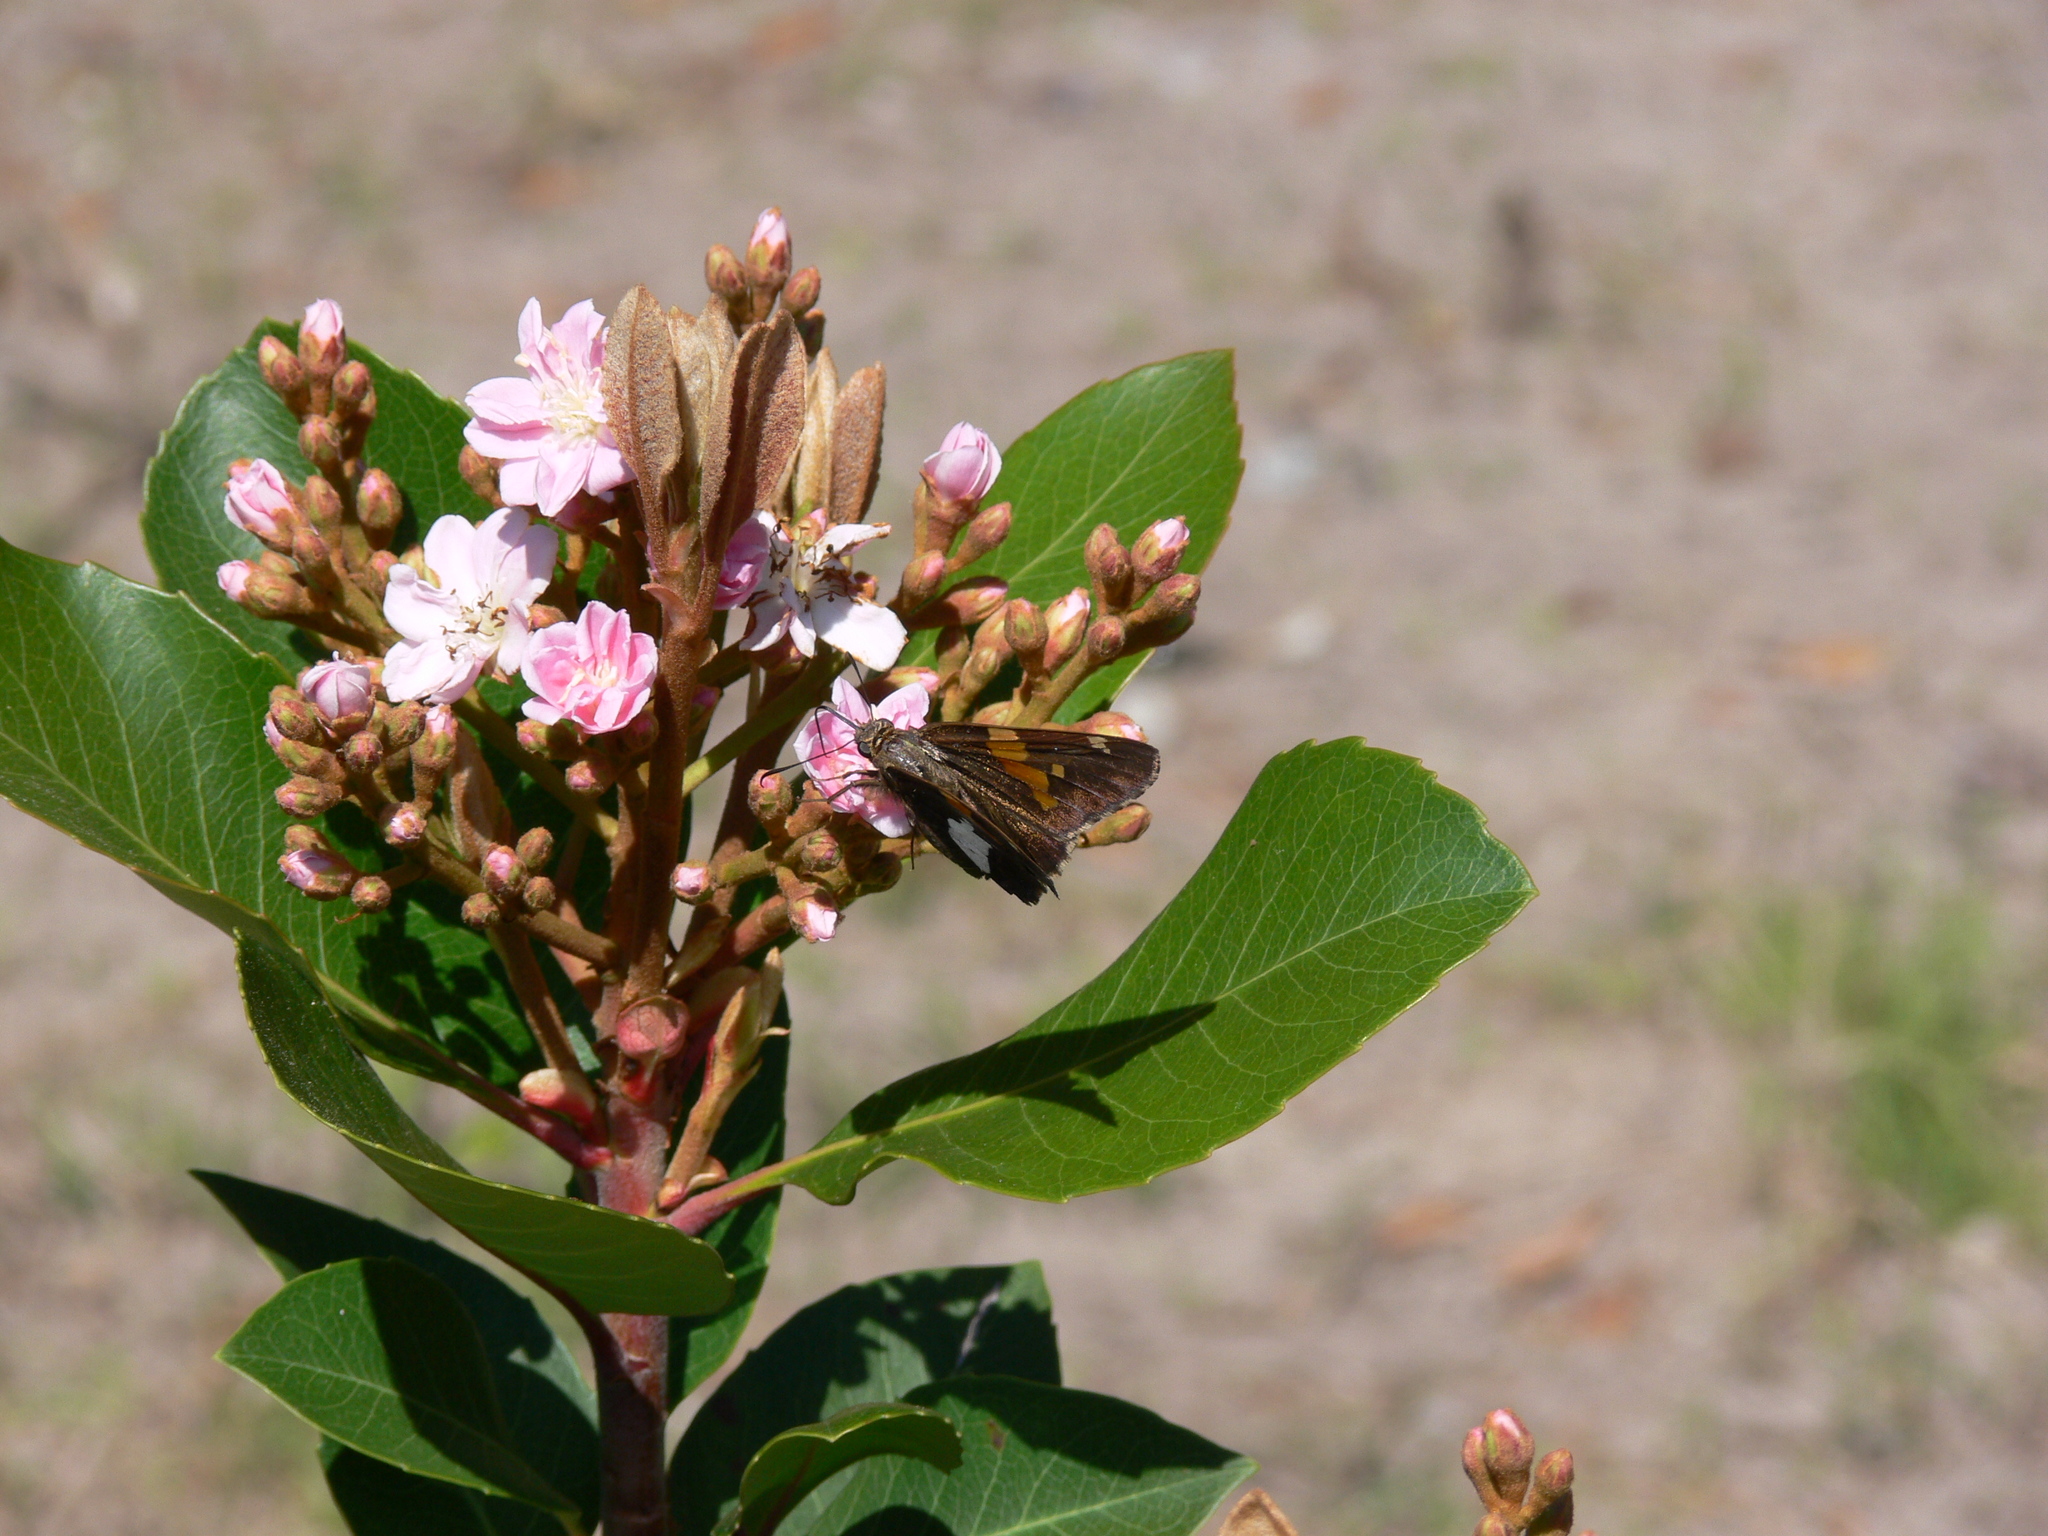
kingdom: Animalia
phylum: Arthropoda
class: Insecta
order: Lepidoptera
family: Hesperiidae
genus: Epargyreus
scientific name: Epargyreus clarus
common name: Silver-spotted skipper
